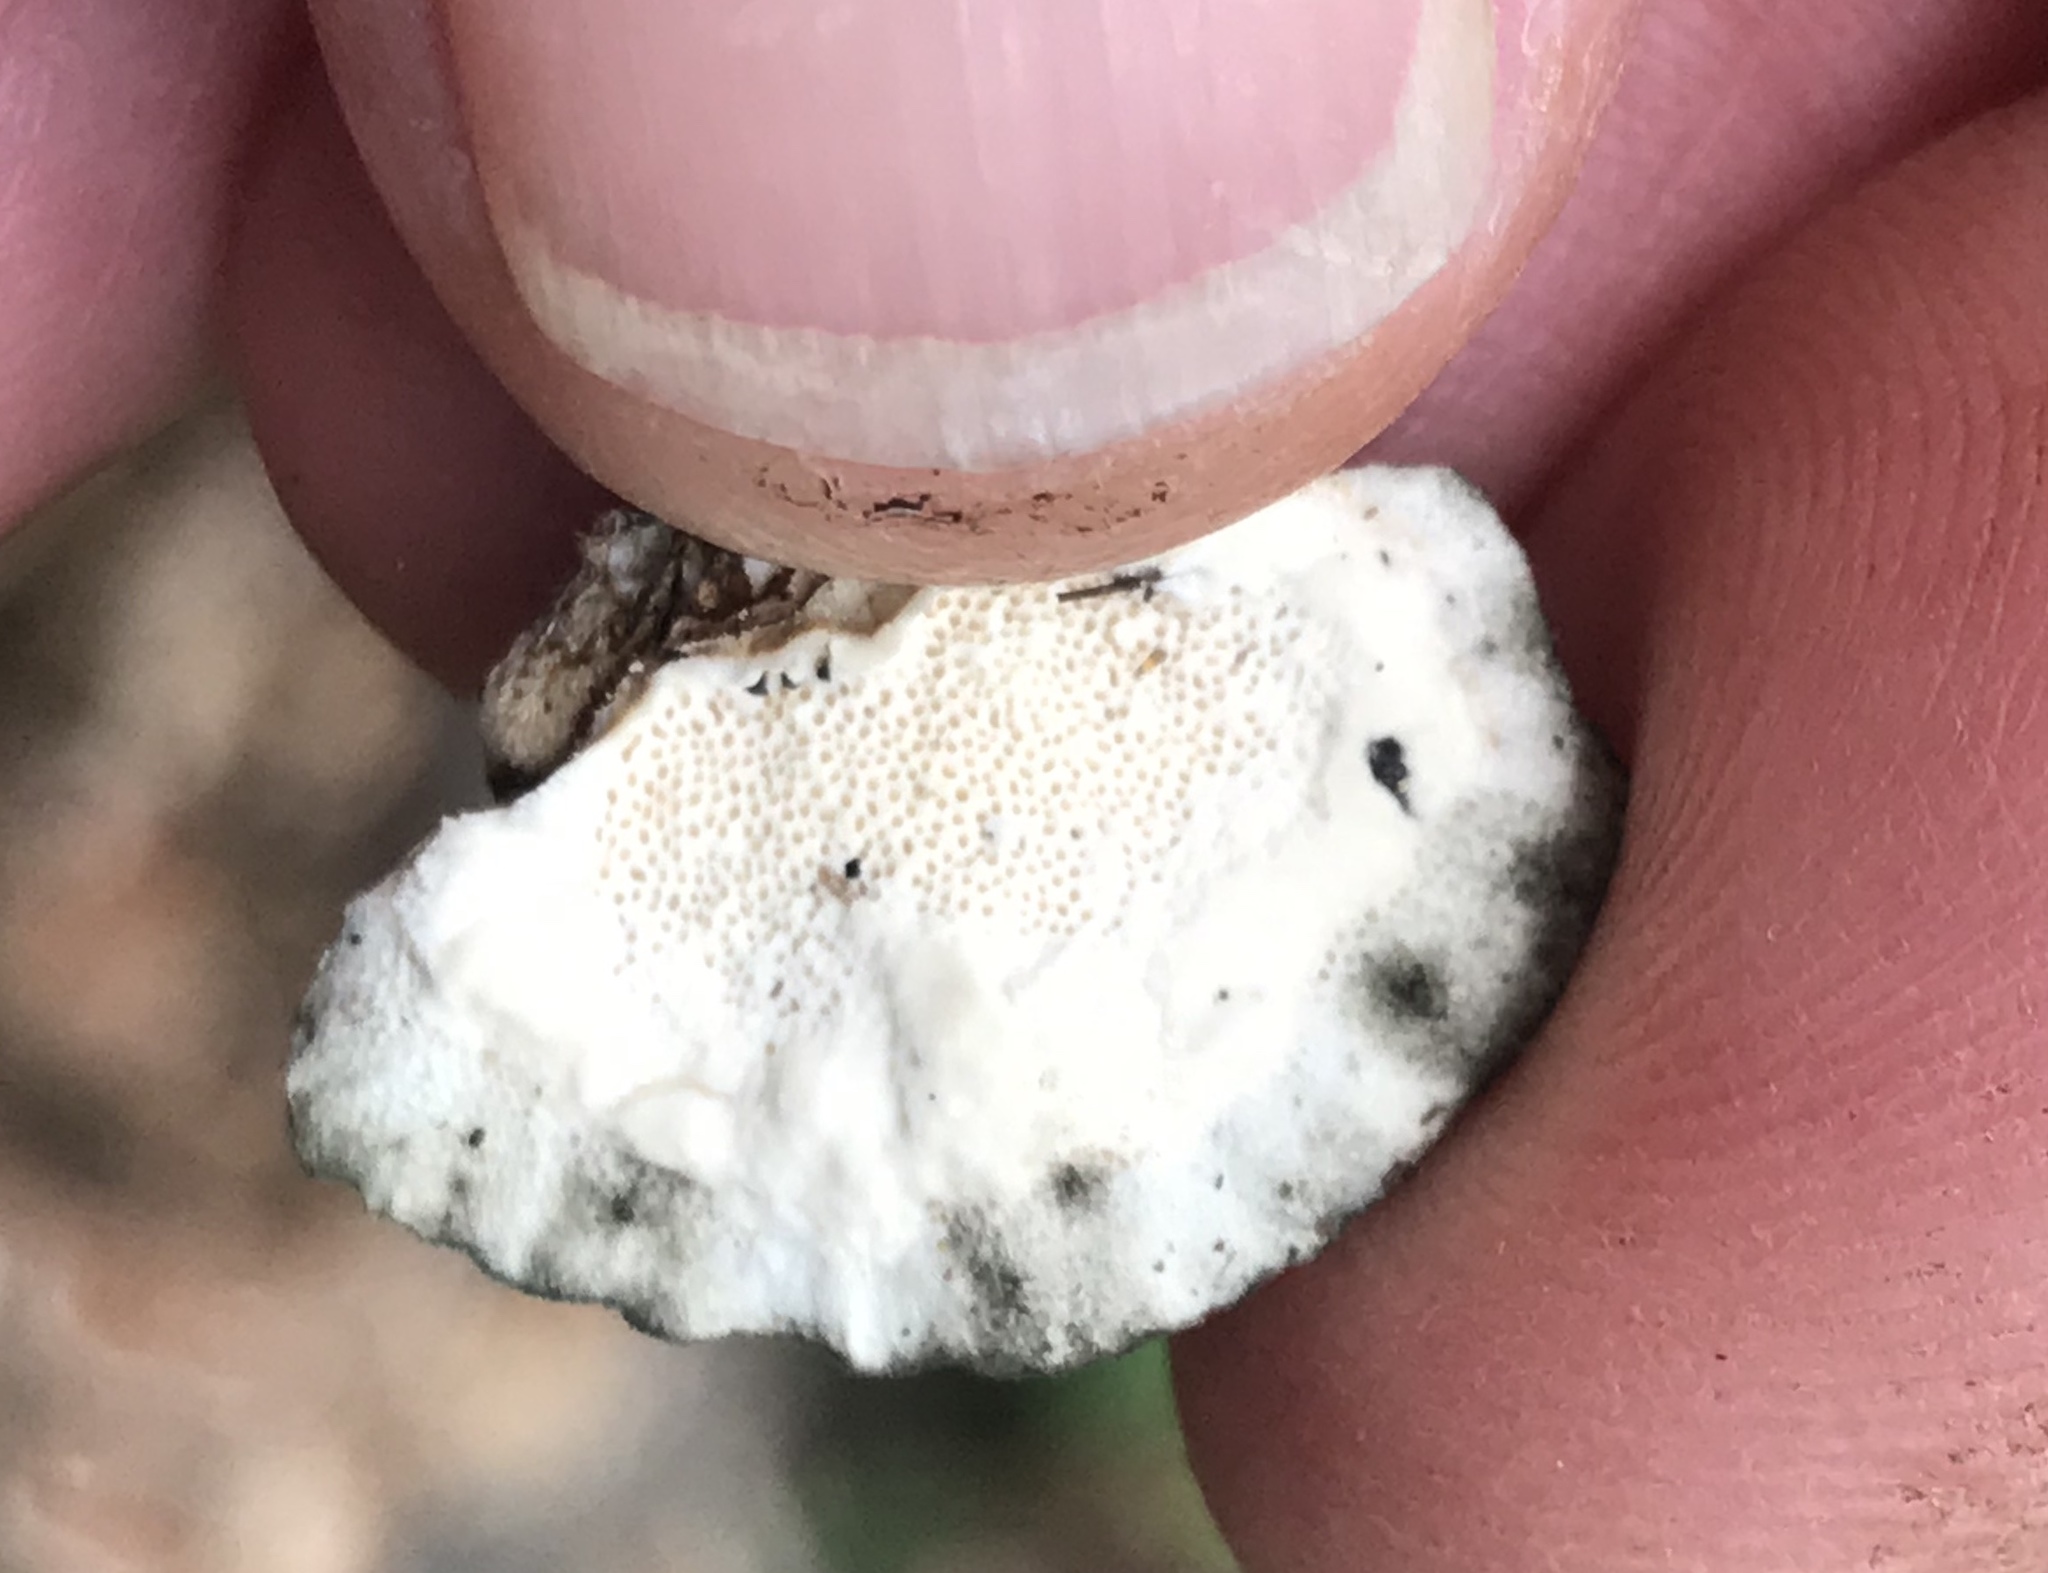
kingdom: Fungi
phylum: Basidiomycota
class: Agaricomycetes
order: Polyporales
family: Polyporaceae
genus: Trametes
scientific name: Trametes versicolor
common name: Turkeytail
